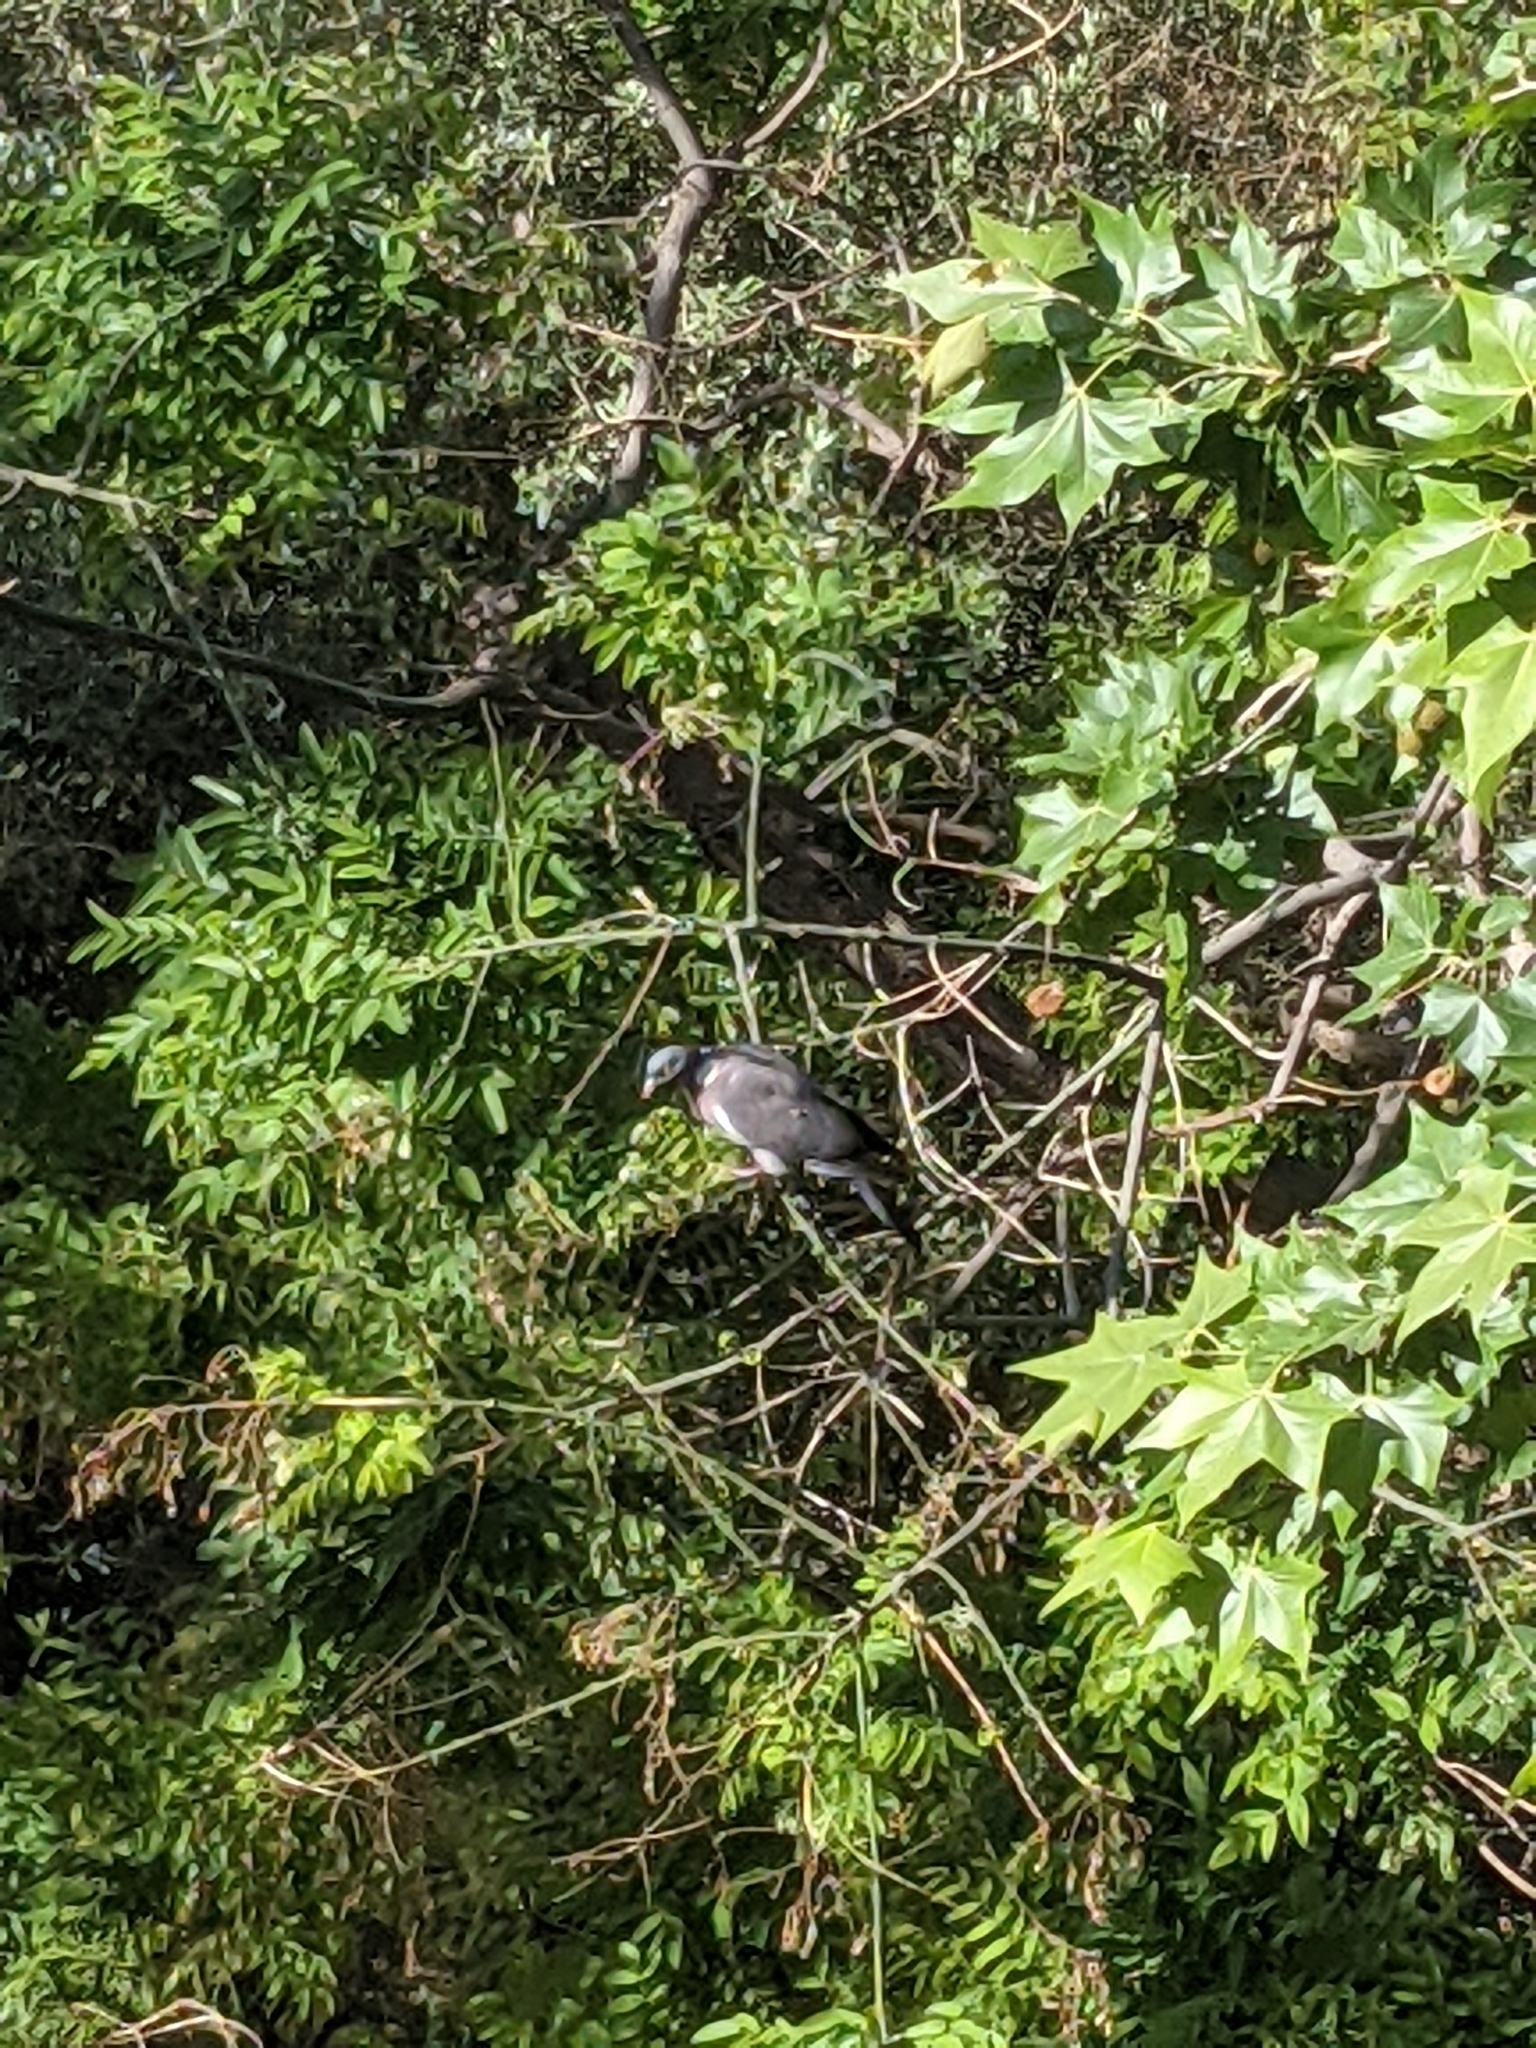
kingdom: Animalia
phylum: Chordata
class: Aves
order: Columbiformes
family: Columbidae
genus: Columba
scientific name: Columba palumbus
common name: Common wood pigeon
